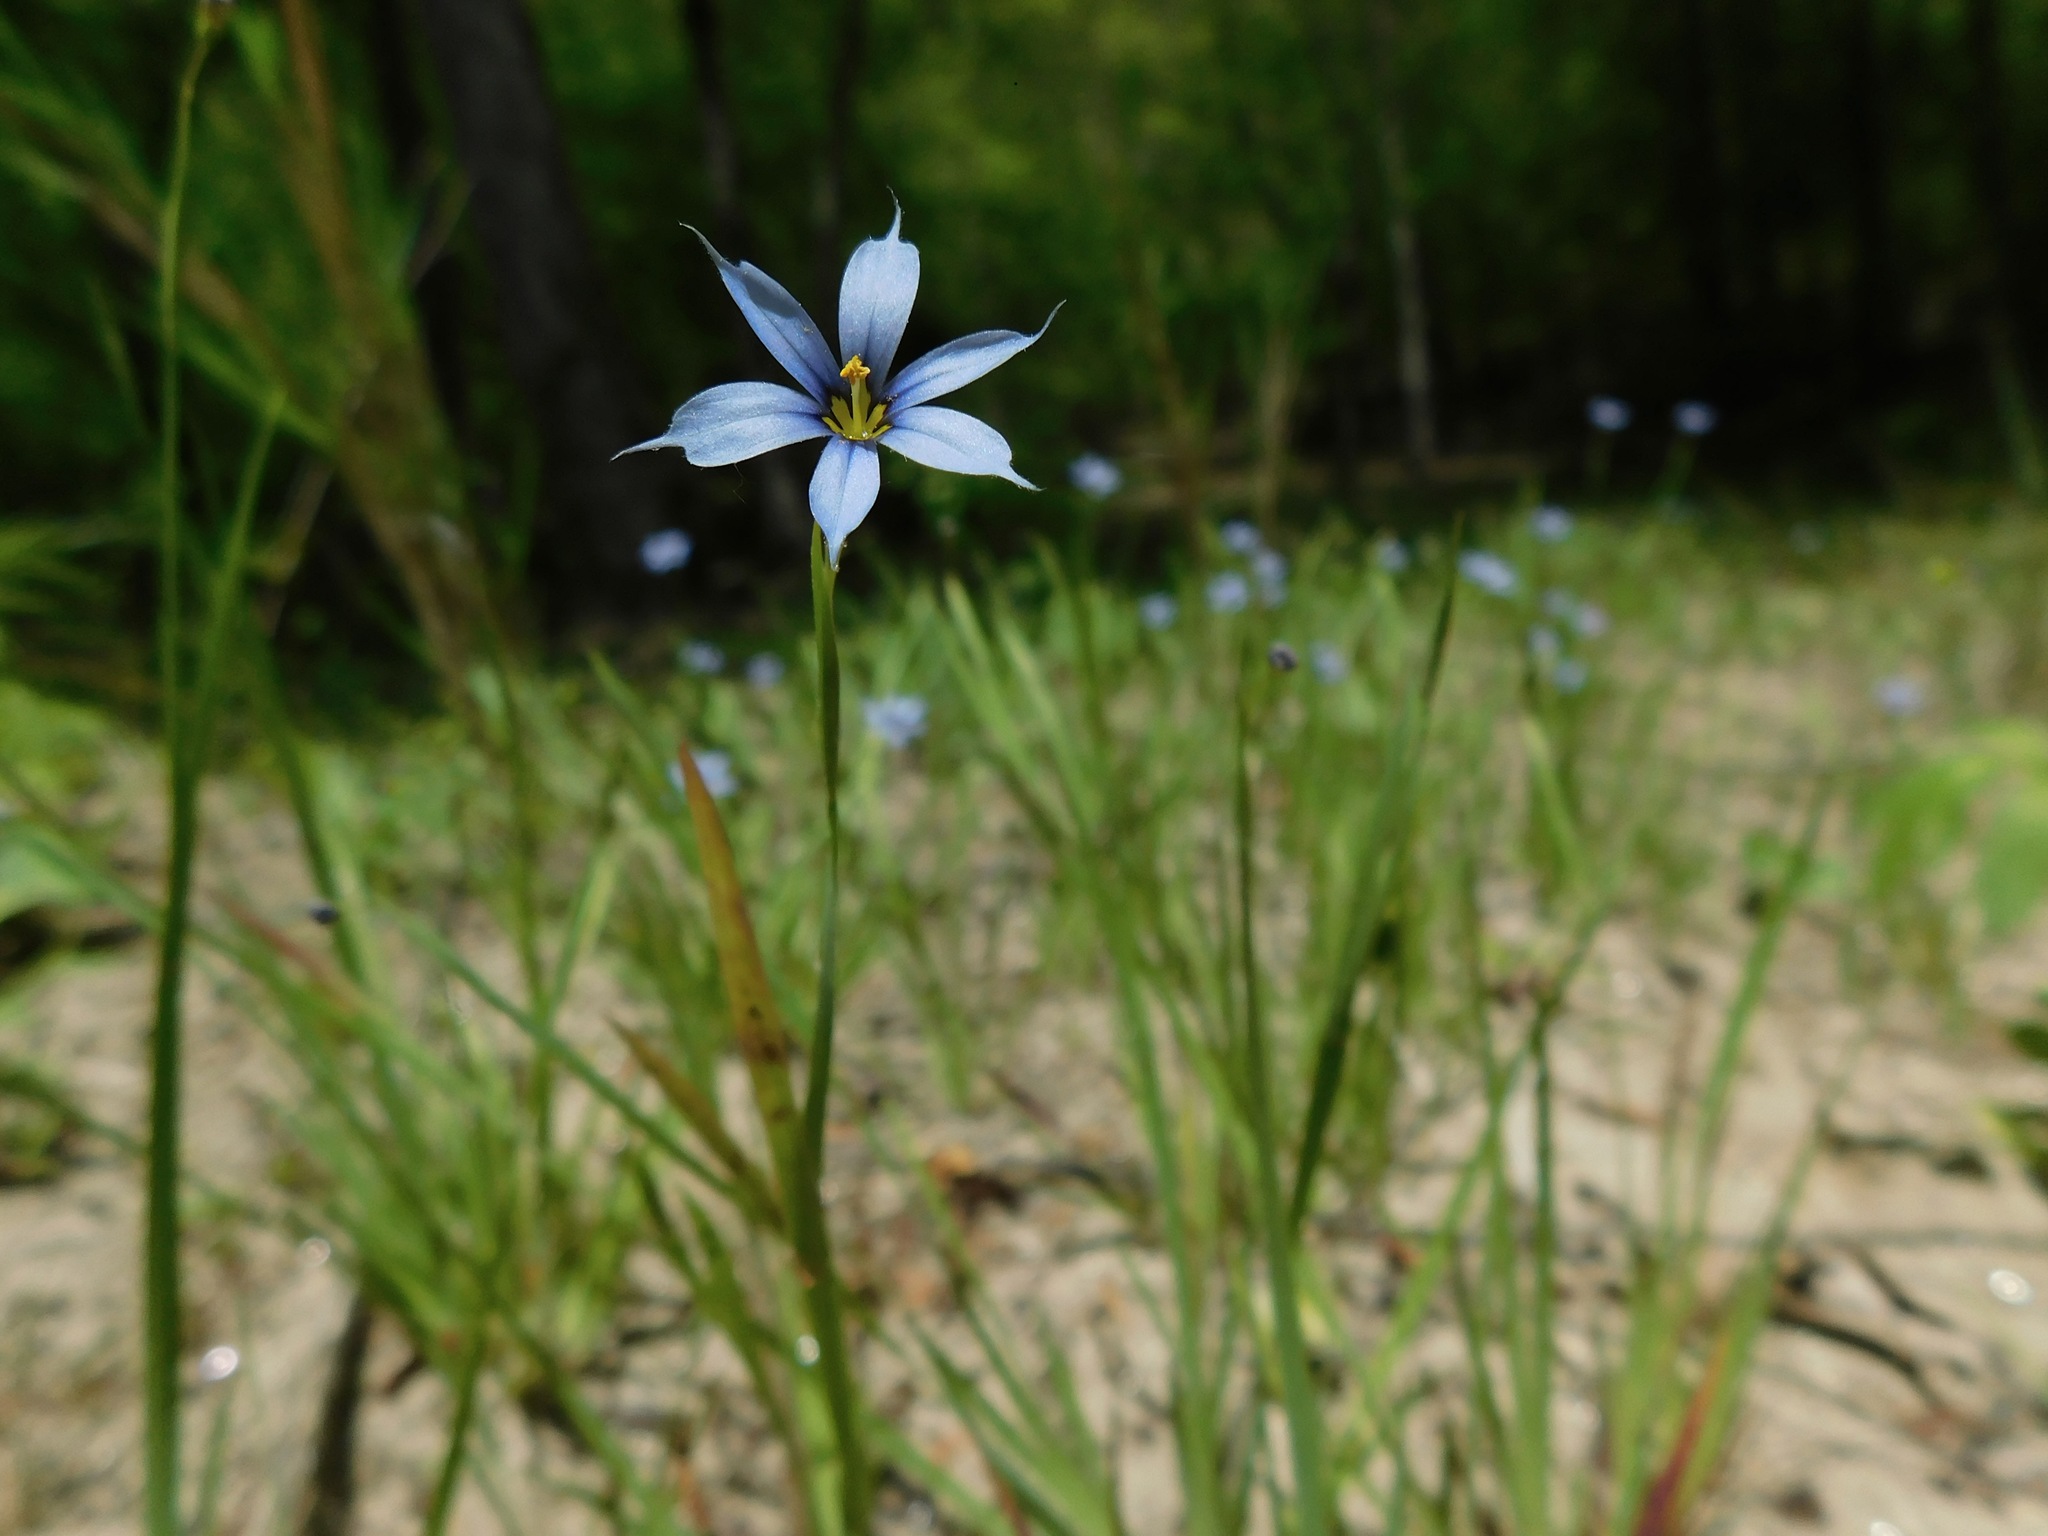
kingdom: Plantae
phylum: Tracheophyta
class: Liliopsida
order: Asparagales
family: Iridaceae
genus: Sisyrinchium
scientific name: Sisyrinchium angustifolium
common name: Narrow-leaf blue-eyed-grass
